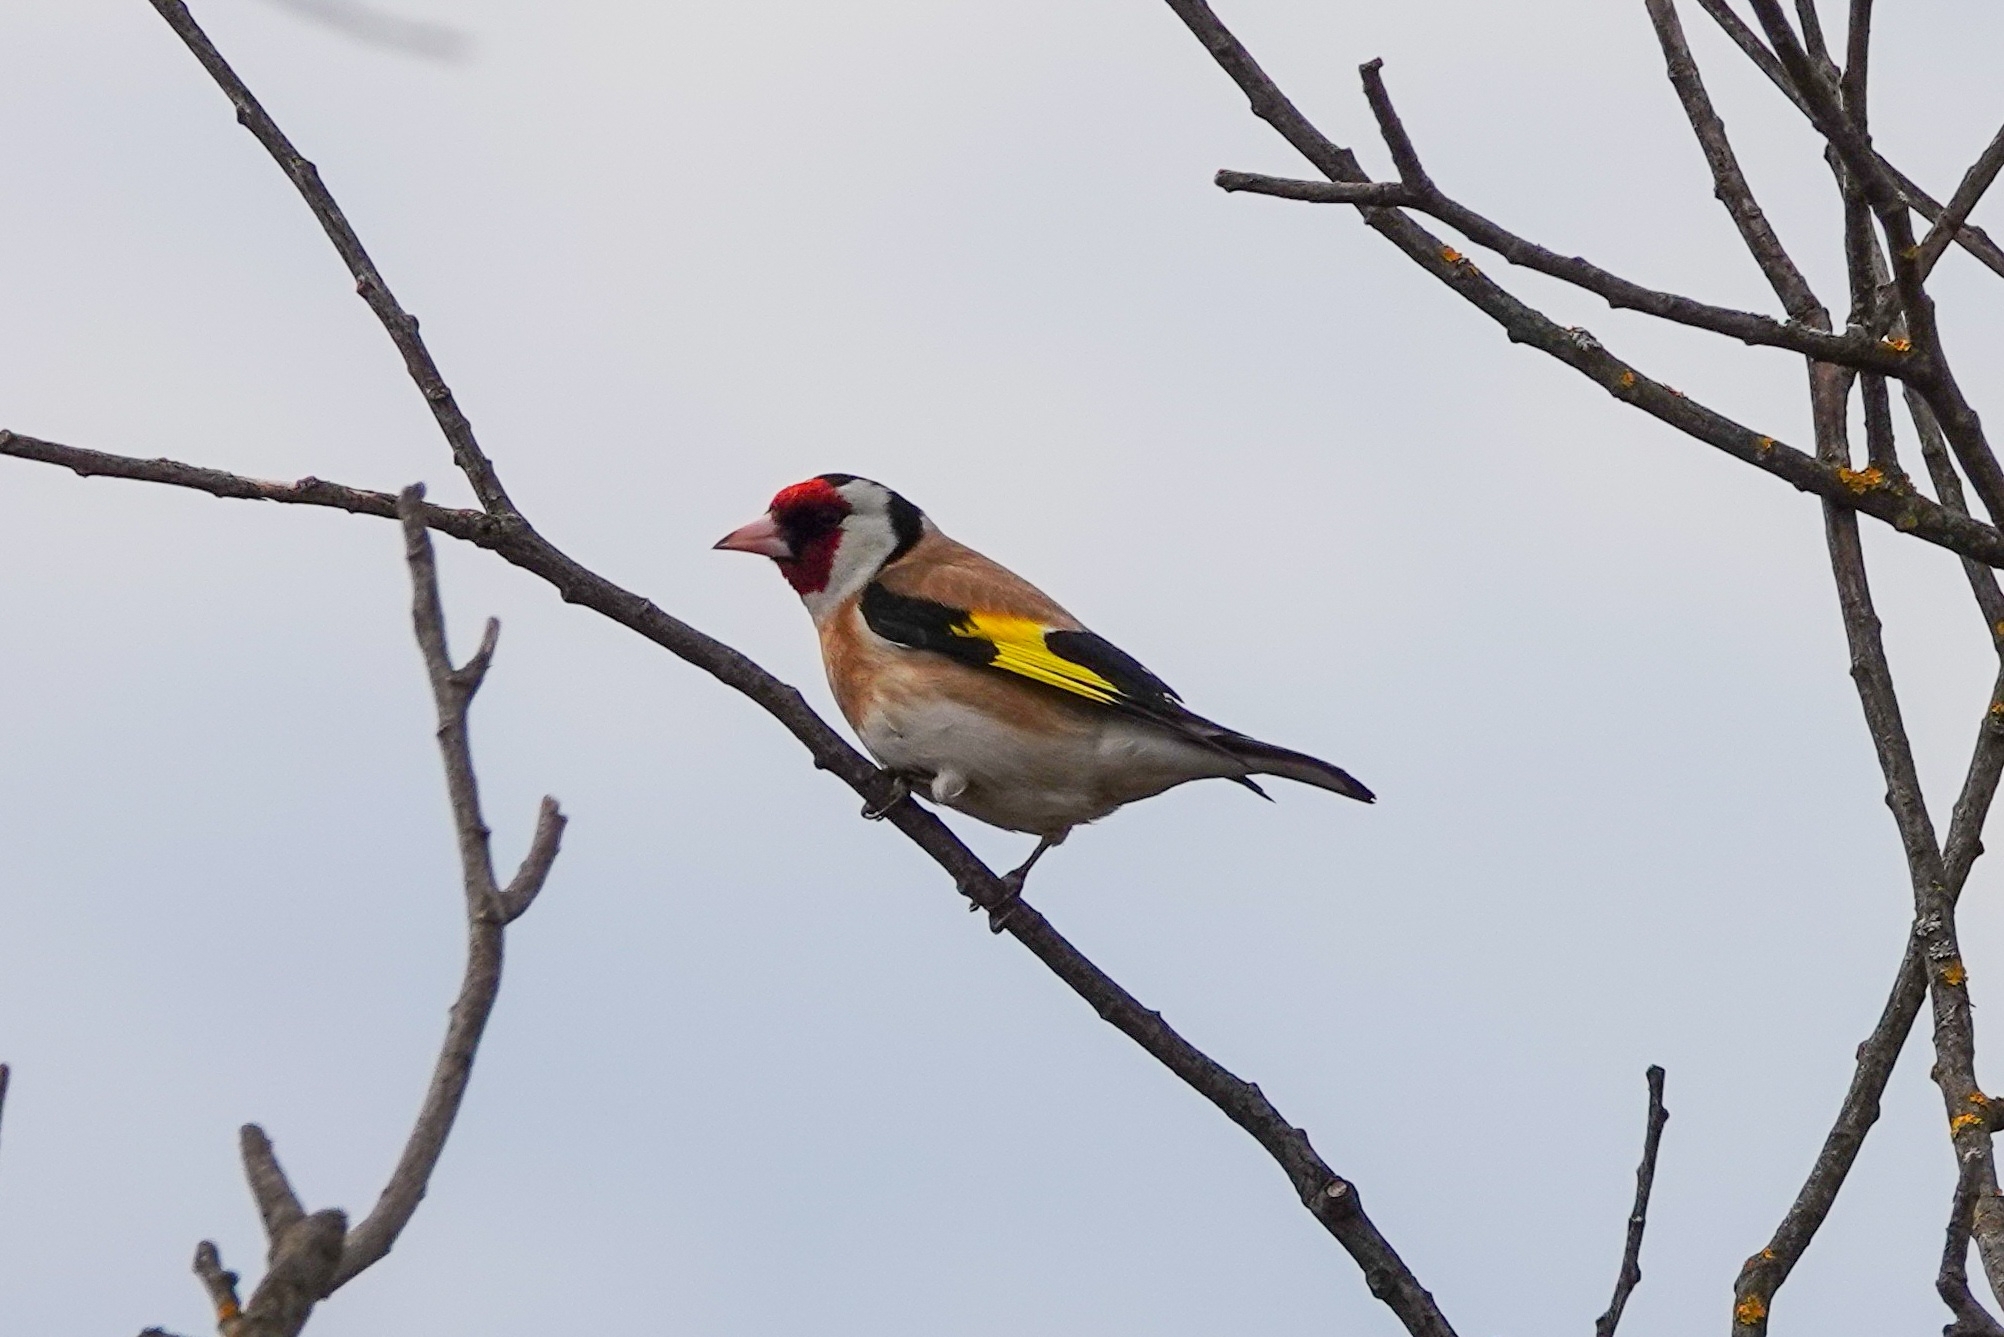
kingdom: Animalia
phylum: Chordata
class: Aves
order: Passeriformes
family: Fringillidae
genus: Carduelis
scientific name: Carduelis carduelis
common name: European goldfinch
